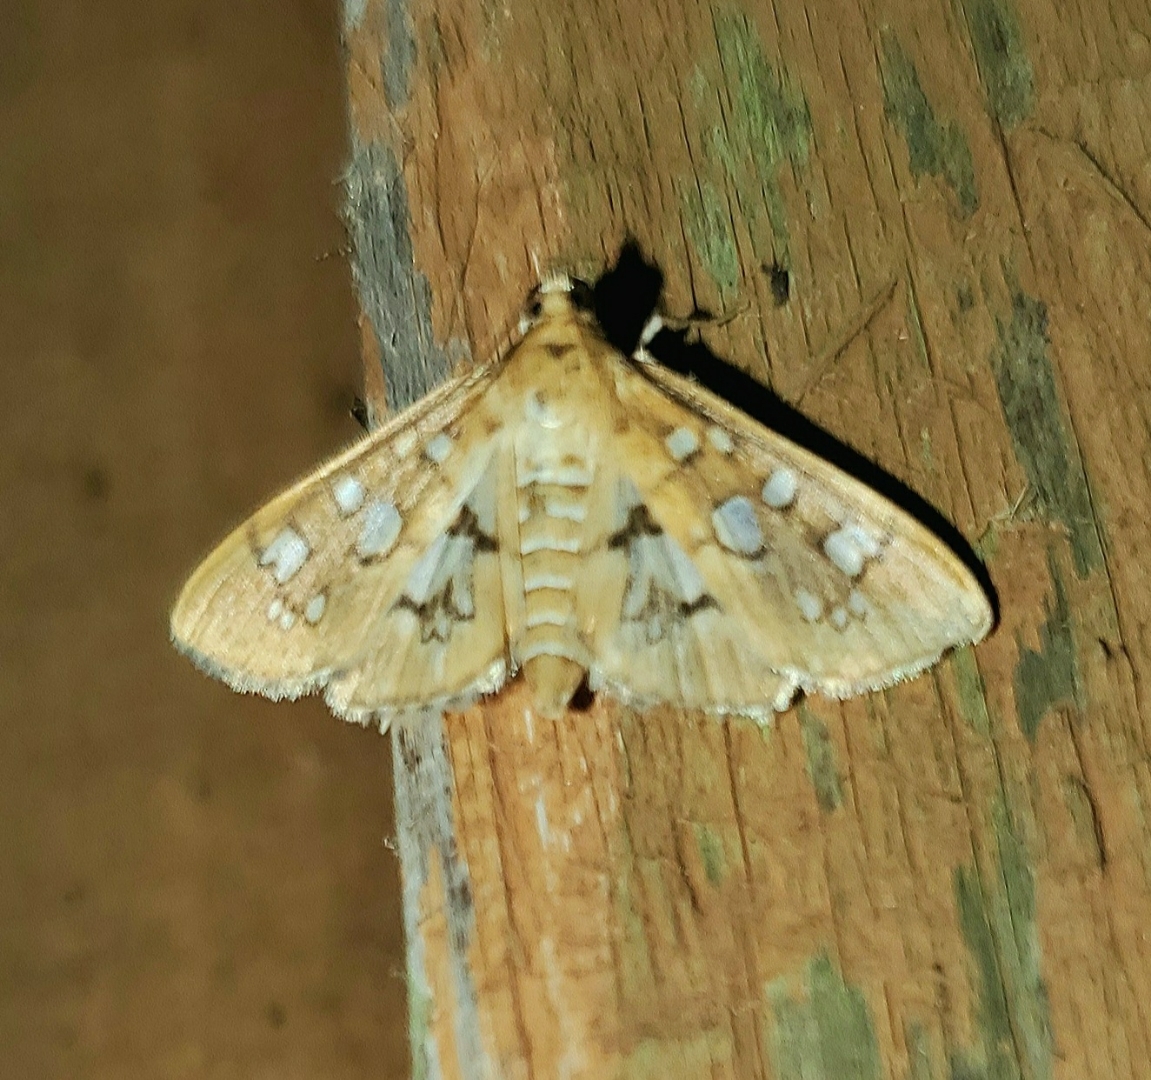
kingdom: Animalia
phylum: Arthropoda
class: Insecta
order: Lepidoptera
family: Crambidae
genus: Samea
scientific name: Samea baccatalis
